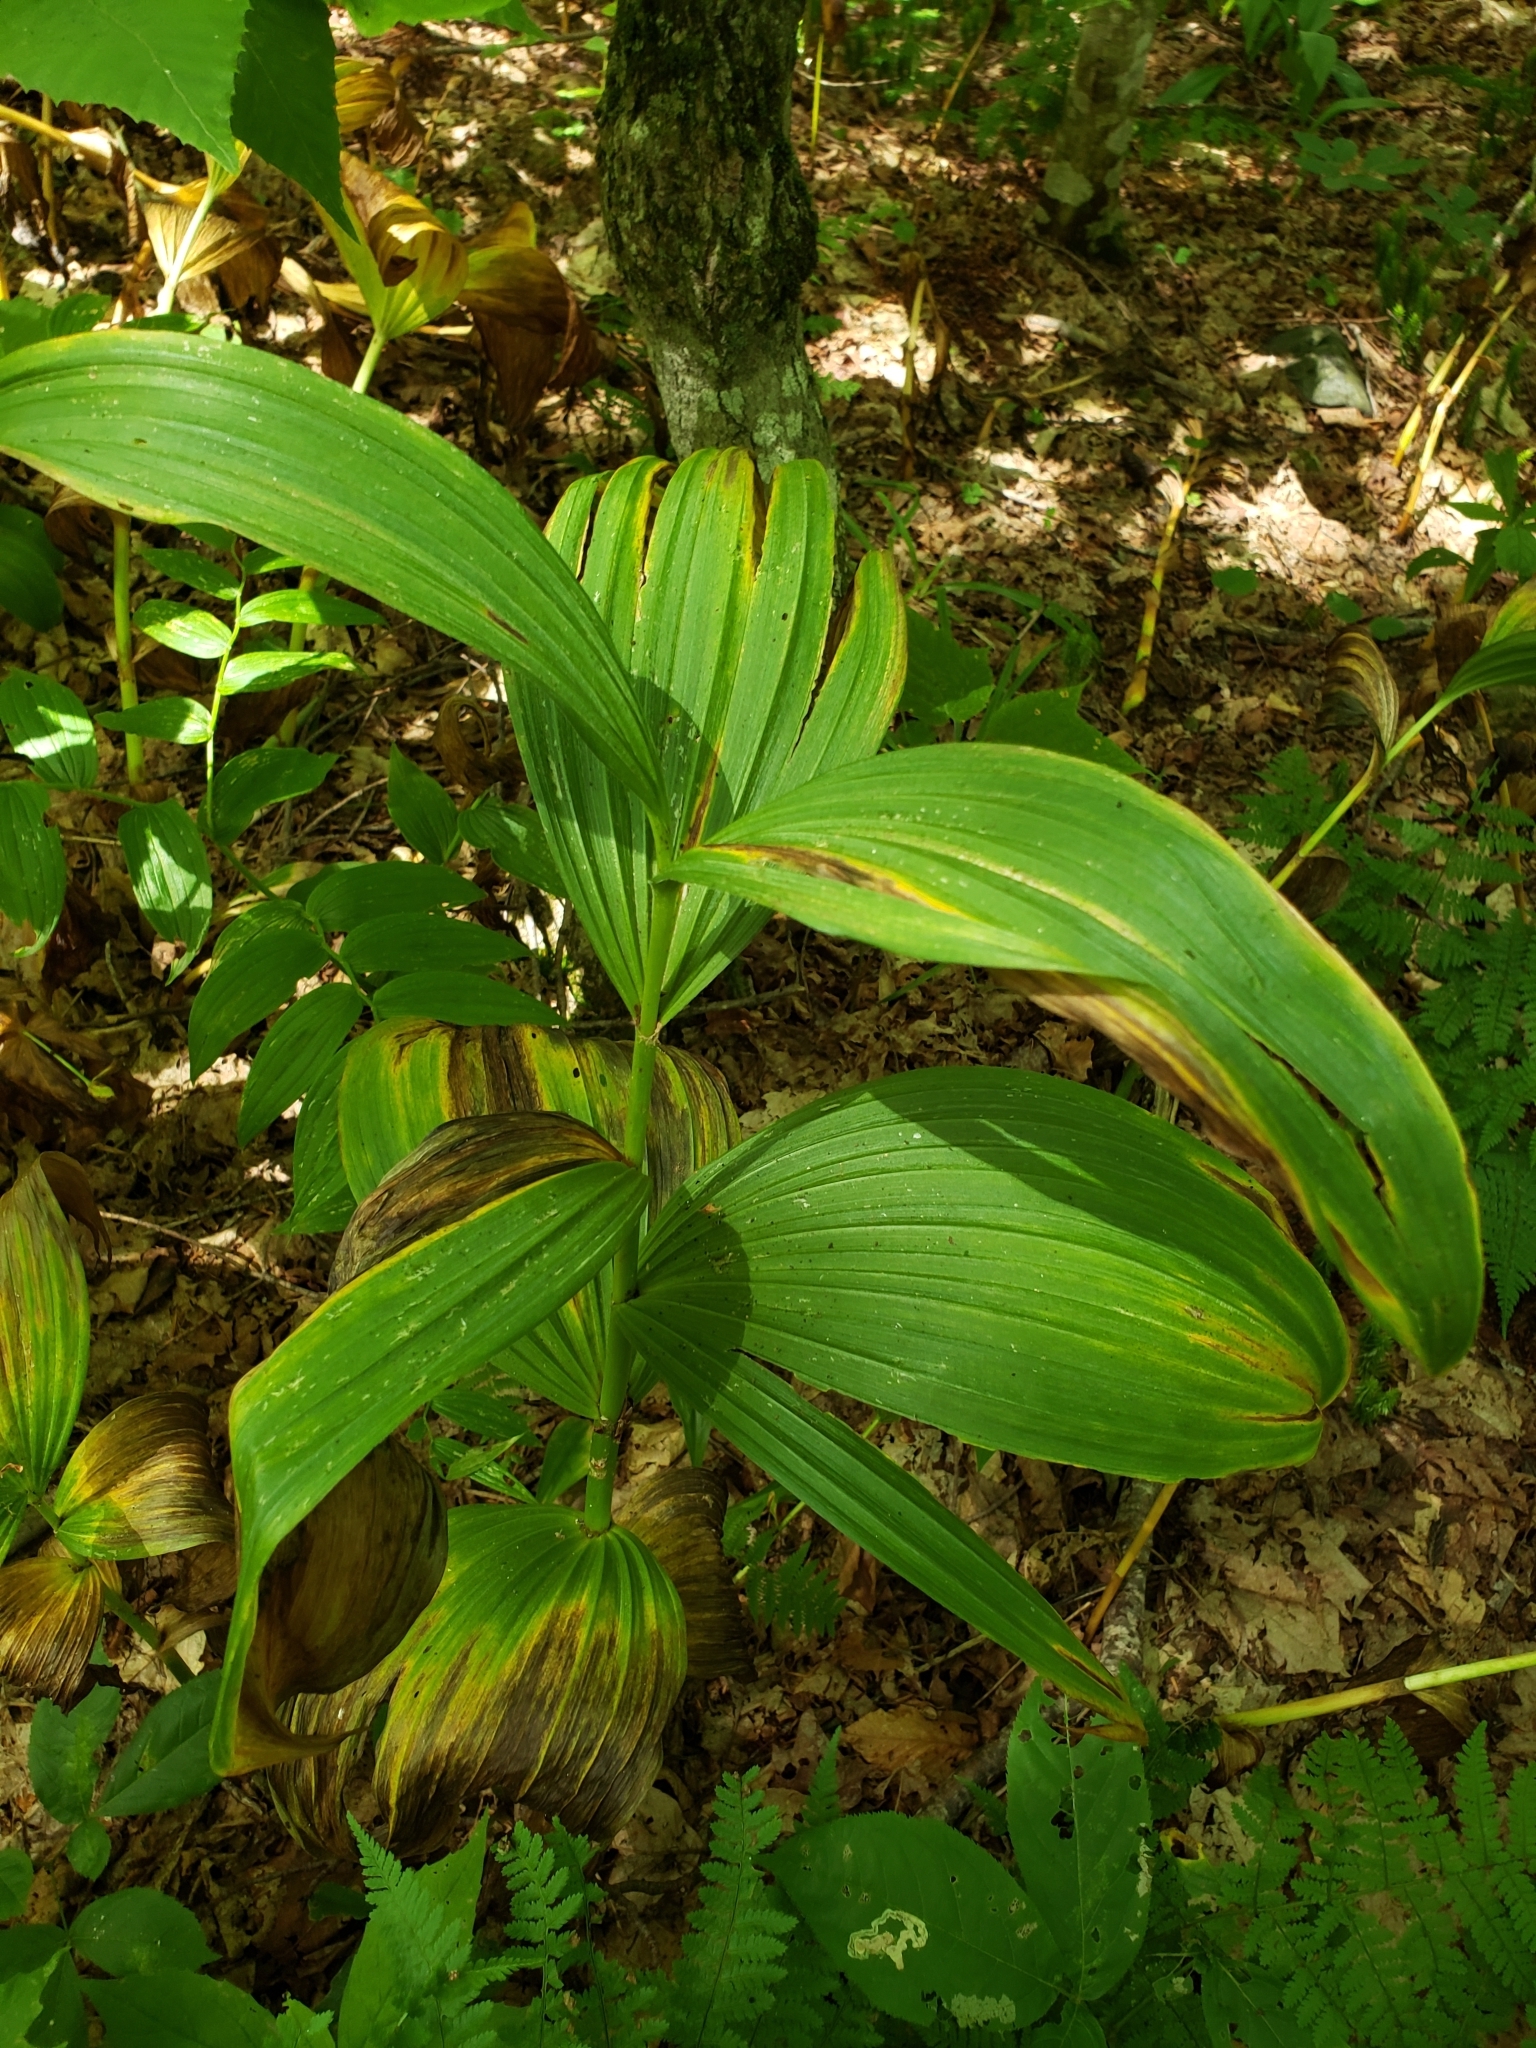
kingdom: Plantae
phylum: Tracheophyta
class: Liliopsida
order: Liliales
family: Melanthiaceae
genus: Veratrum
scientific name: Veratrum viride
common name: American false hellebore
